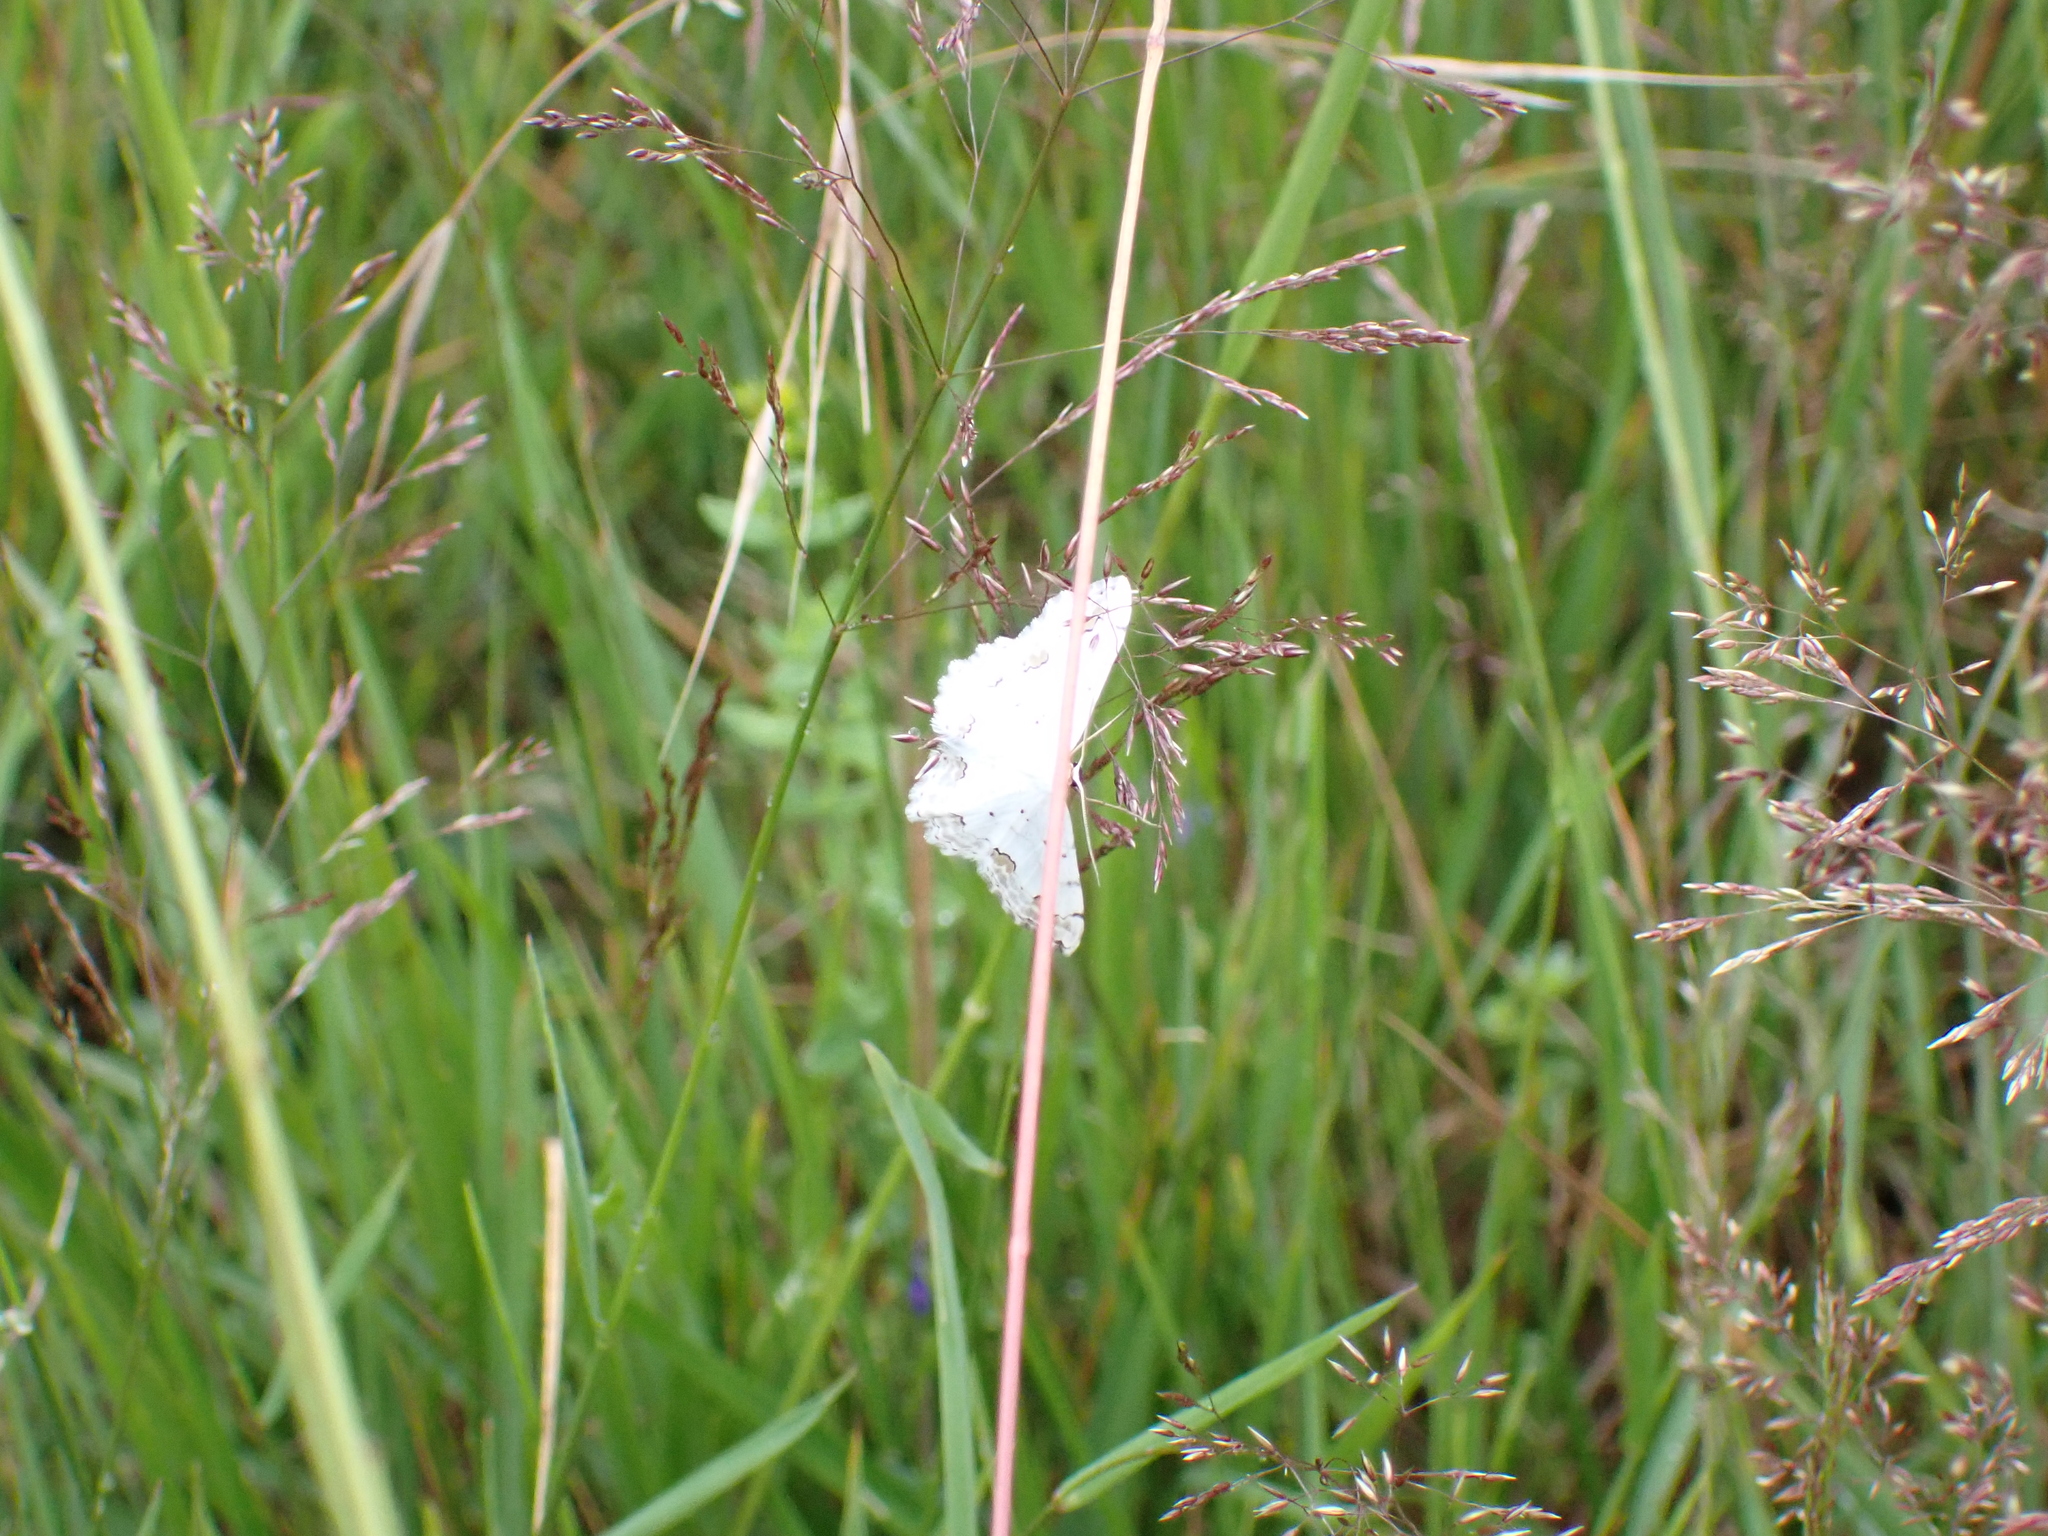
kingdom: Animalia
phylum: Arthropoda
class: Insecta
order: Lepidoptera
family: Geometridae
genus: Scopula
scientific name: Scopula ornata
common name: Lace border
